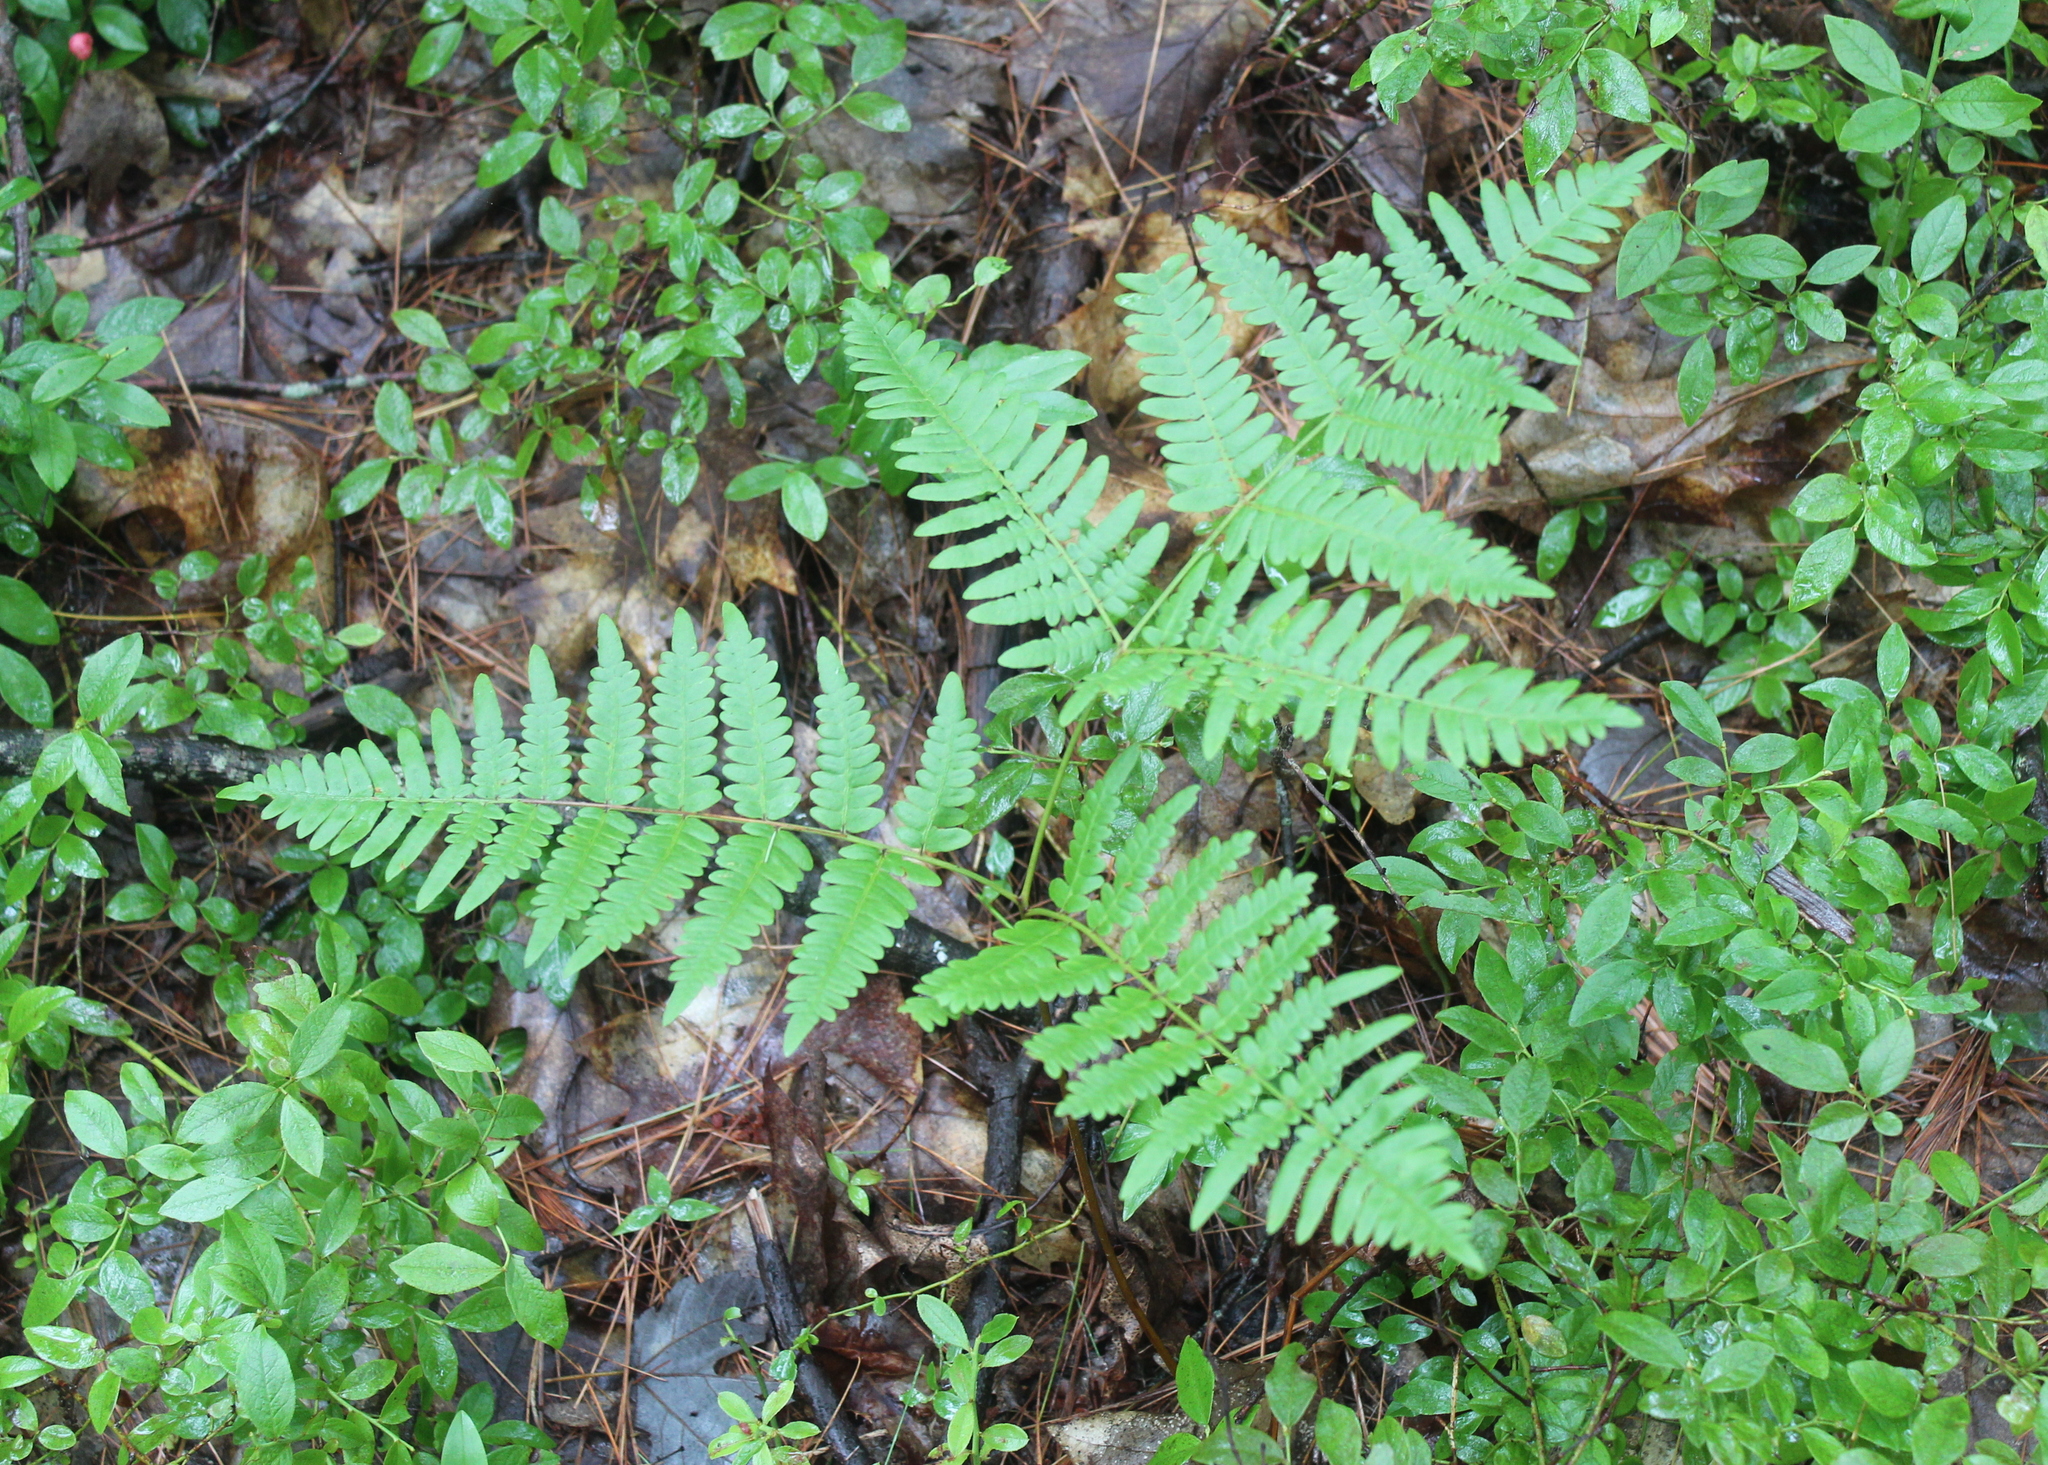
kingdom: Plantae
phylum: Tracheophyta
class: Polypodiopsida
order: Polypodiales
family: Dennstaedtiaceae
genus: Pteridium
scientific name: Pteridium aquilinum
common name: Bracken
